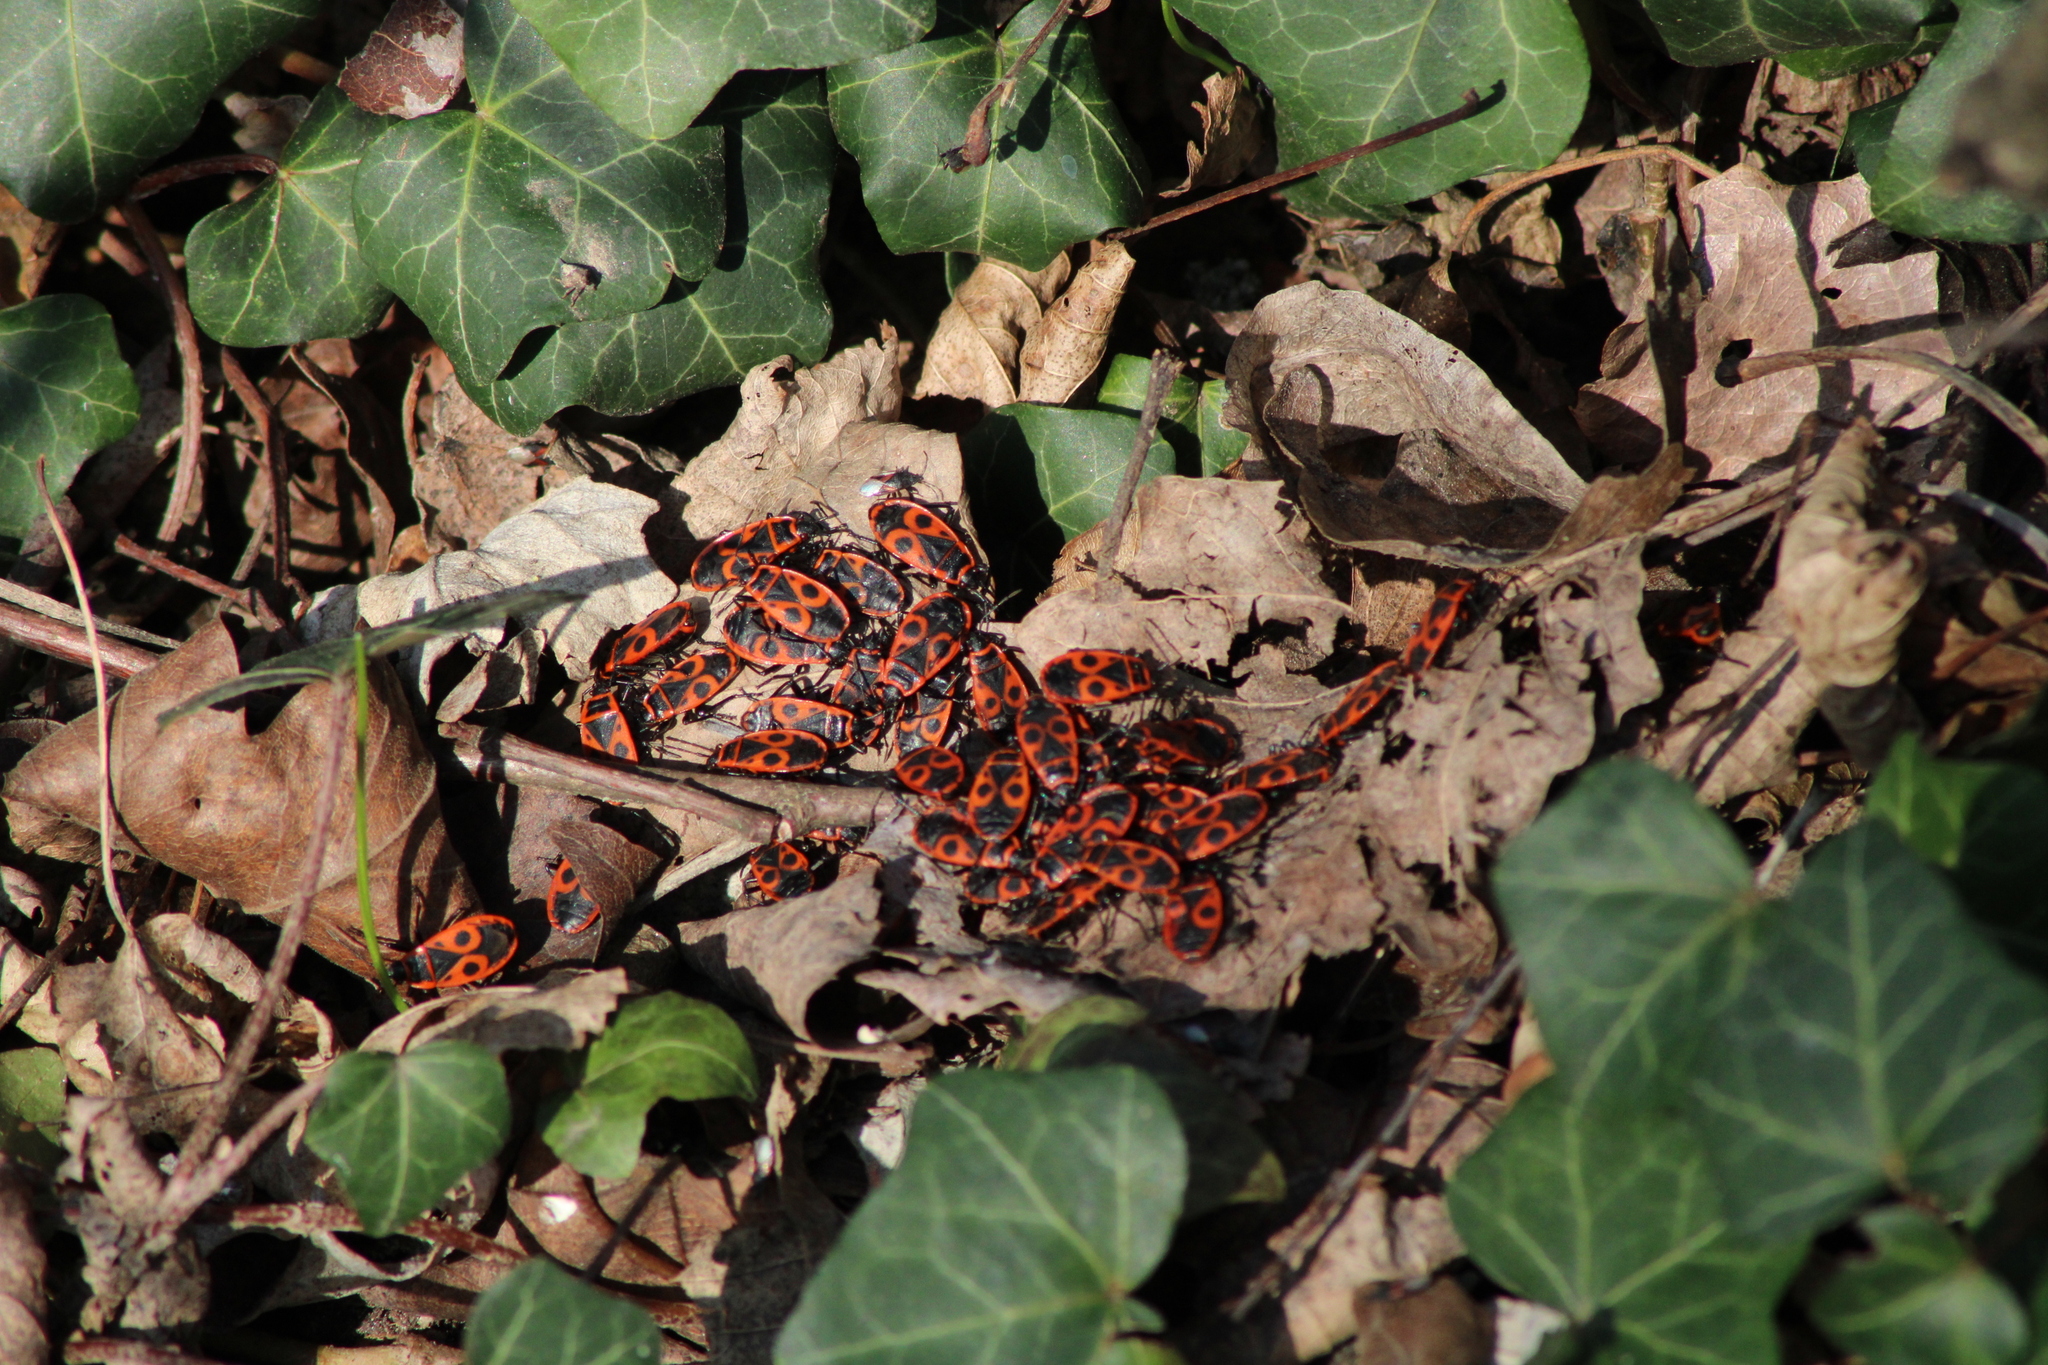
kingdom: Animalia
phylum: Arthropoda
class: Insecta
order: Hemiptera
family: Pyrrhocoridae
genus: Pyrrhocoris
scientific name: Pyrrhocoris apterus
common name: Firebug
